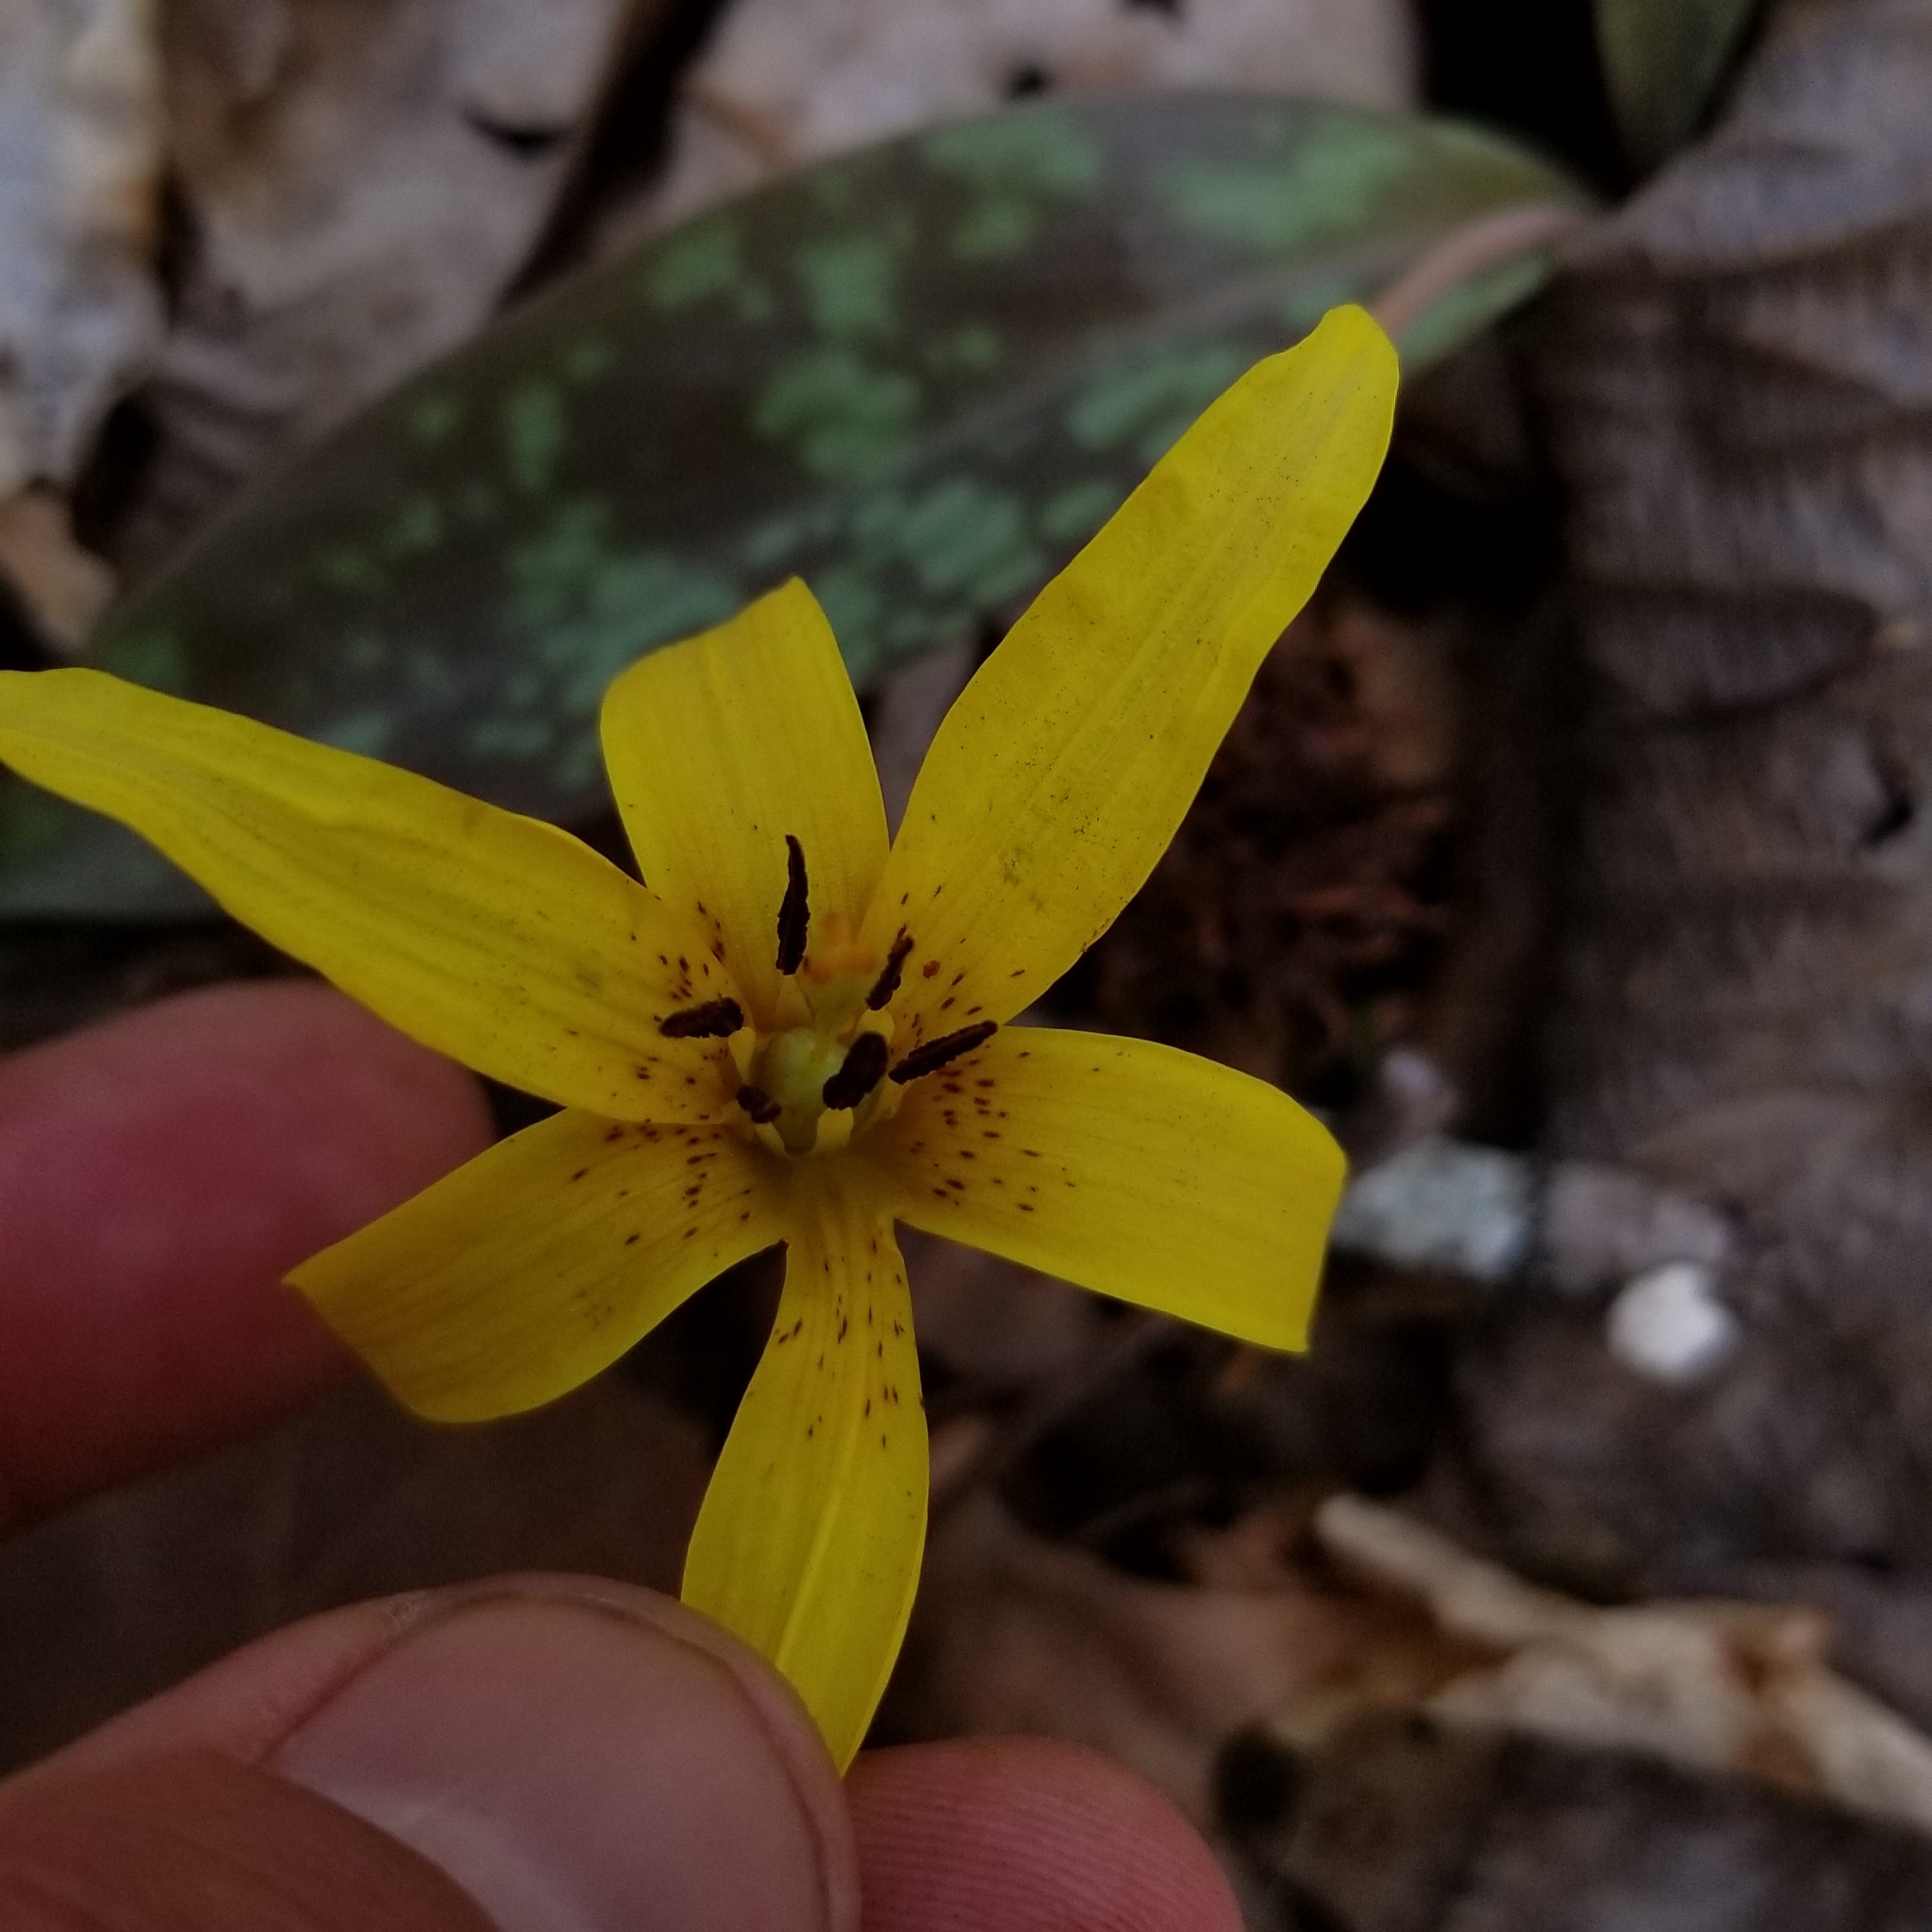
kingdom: Plantae
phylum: Tracheophyta
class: Liliopsida
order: Liliales
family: Liliaceae
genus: Erythronium
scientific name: Erythronium americanum
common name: Yellow adder's-tongue
